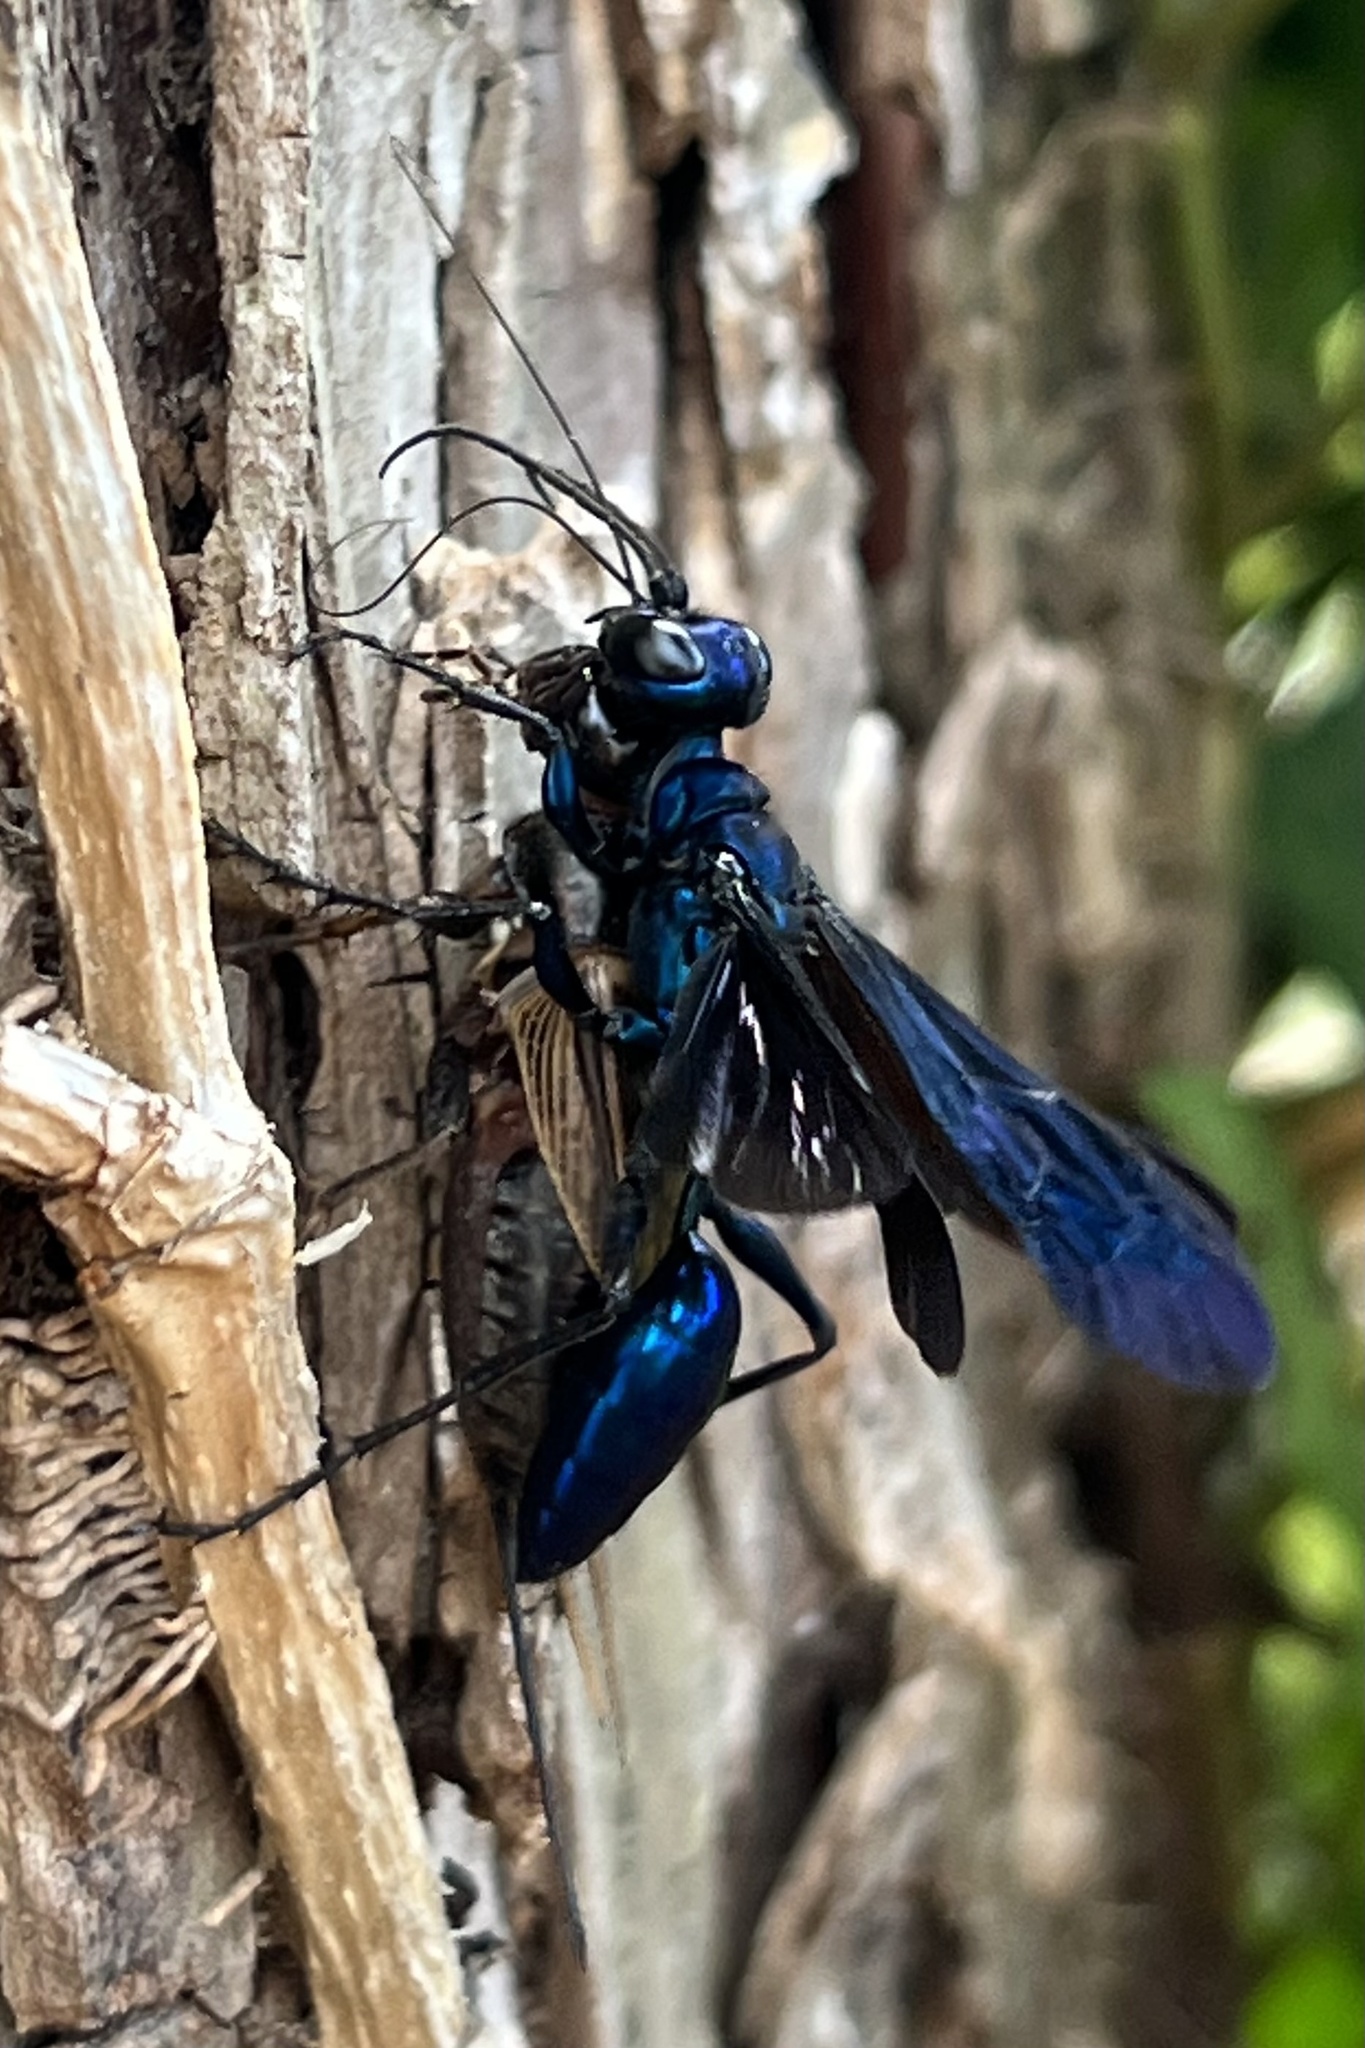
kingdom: Animalia
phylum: Arthropoda
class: Insecta
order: Hymenoptera
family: Sphecidae
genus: Chlorion
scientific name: Chlorion aerarium
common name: Steel-blue cricket hunter
